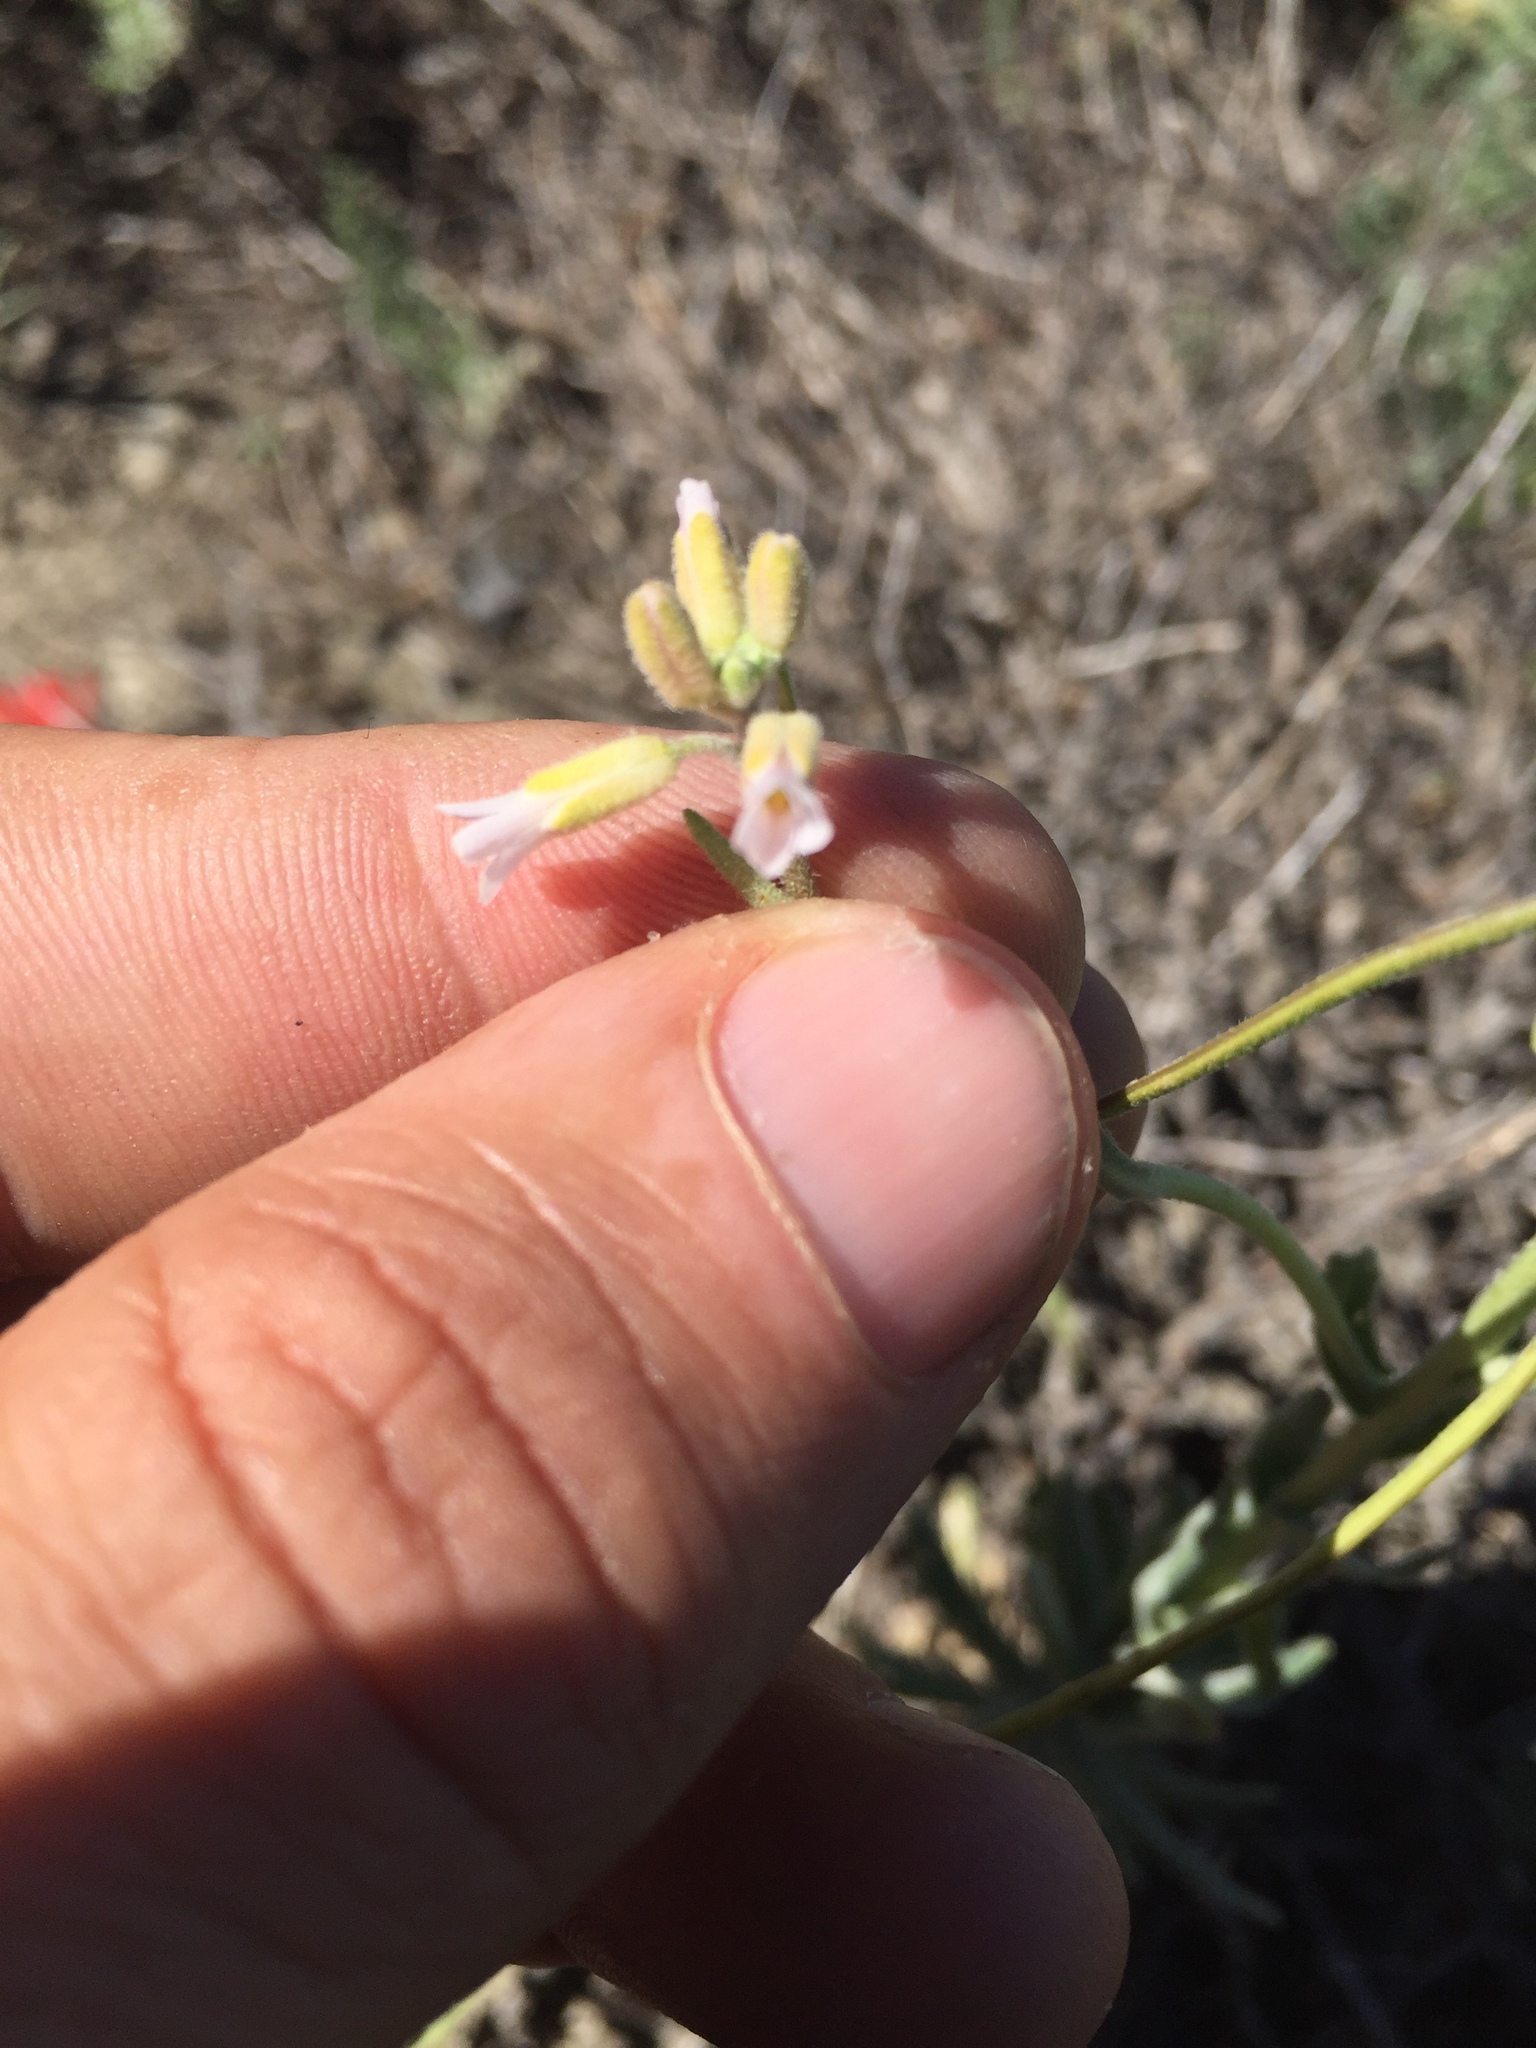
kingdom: Plantae
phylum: Tracheophyta
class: Magnoliopsida
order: Brassicales
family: Brassicaceae
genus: Turritis
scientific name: Turritis glabra
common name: Tower rockcress
